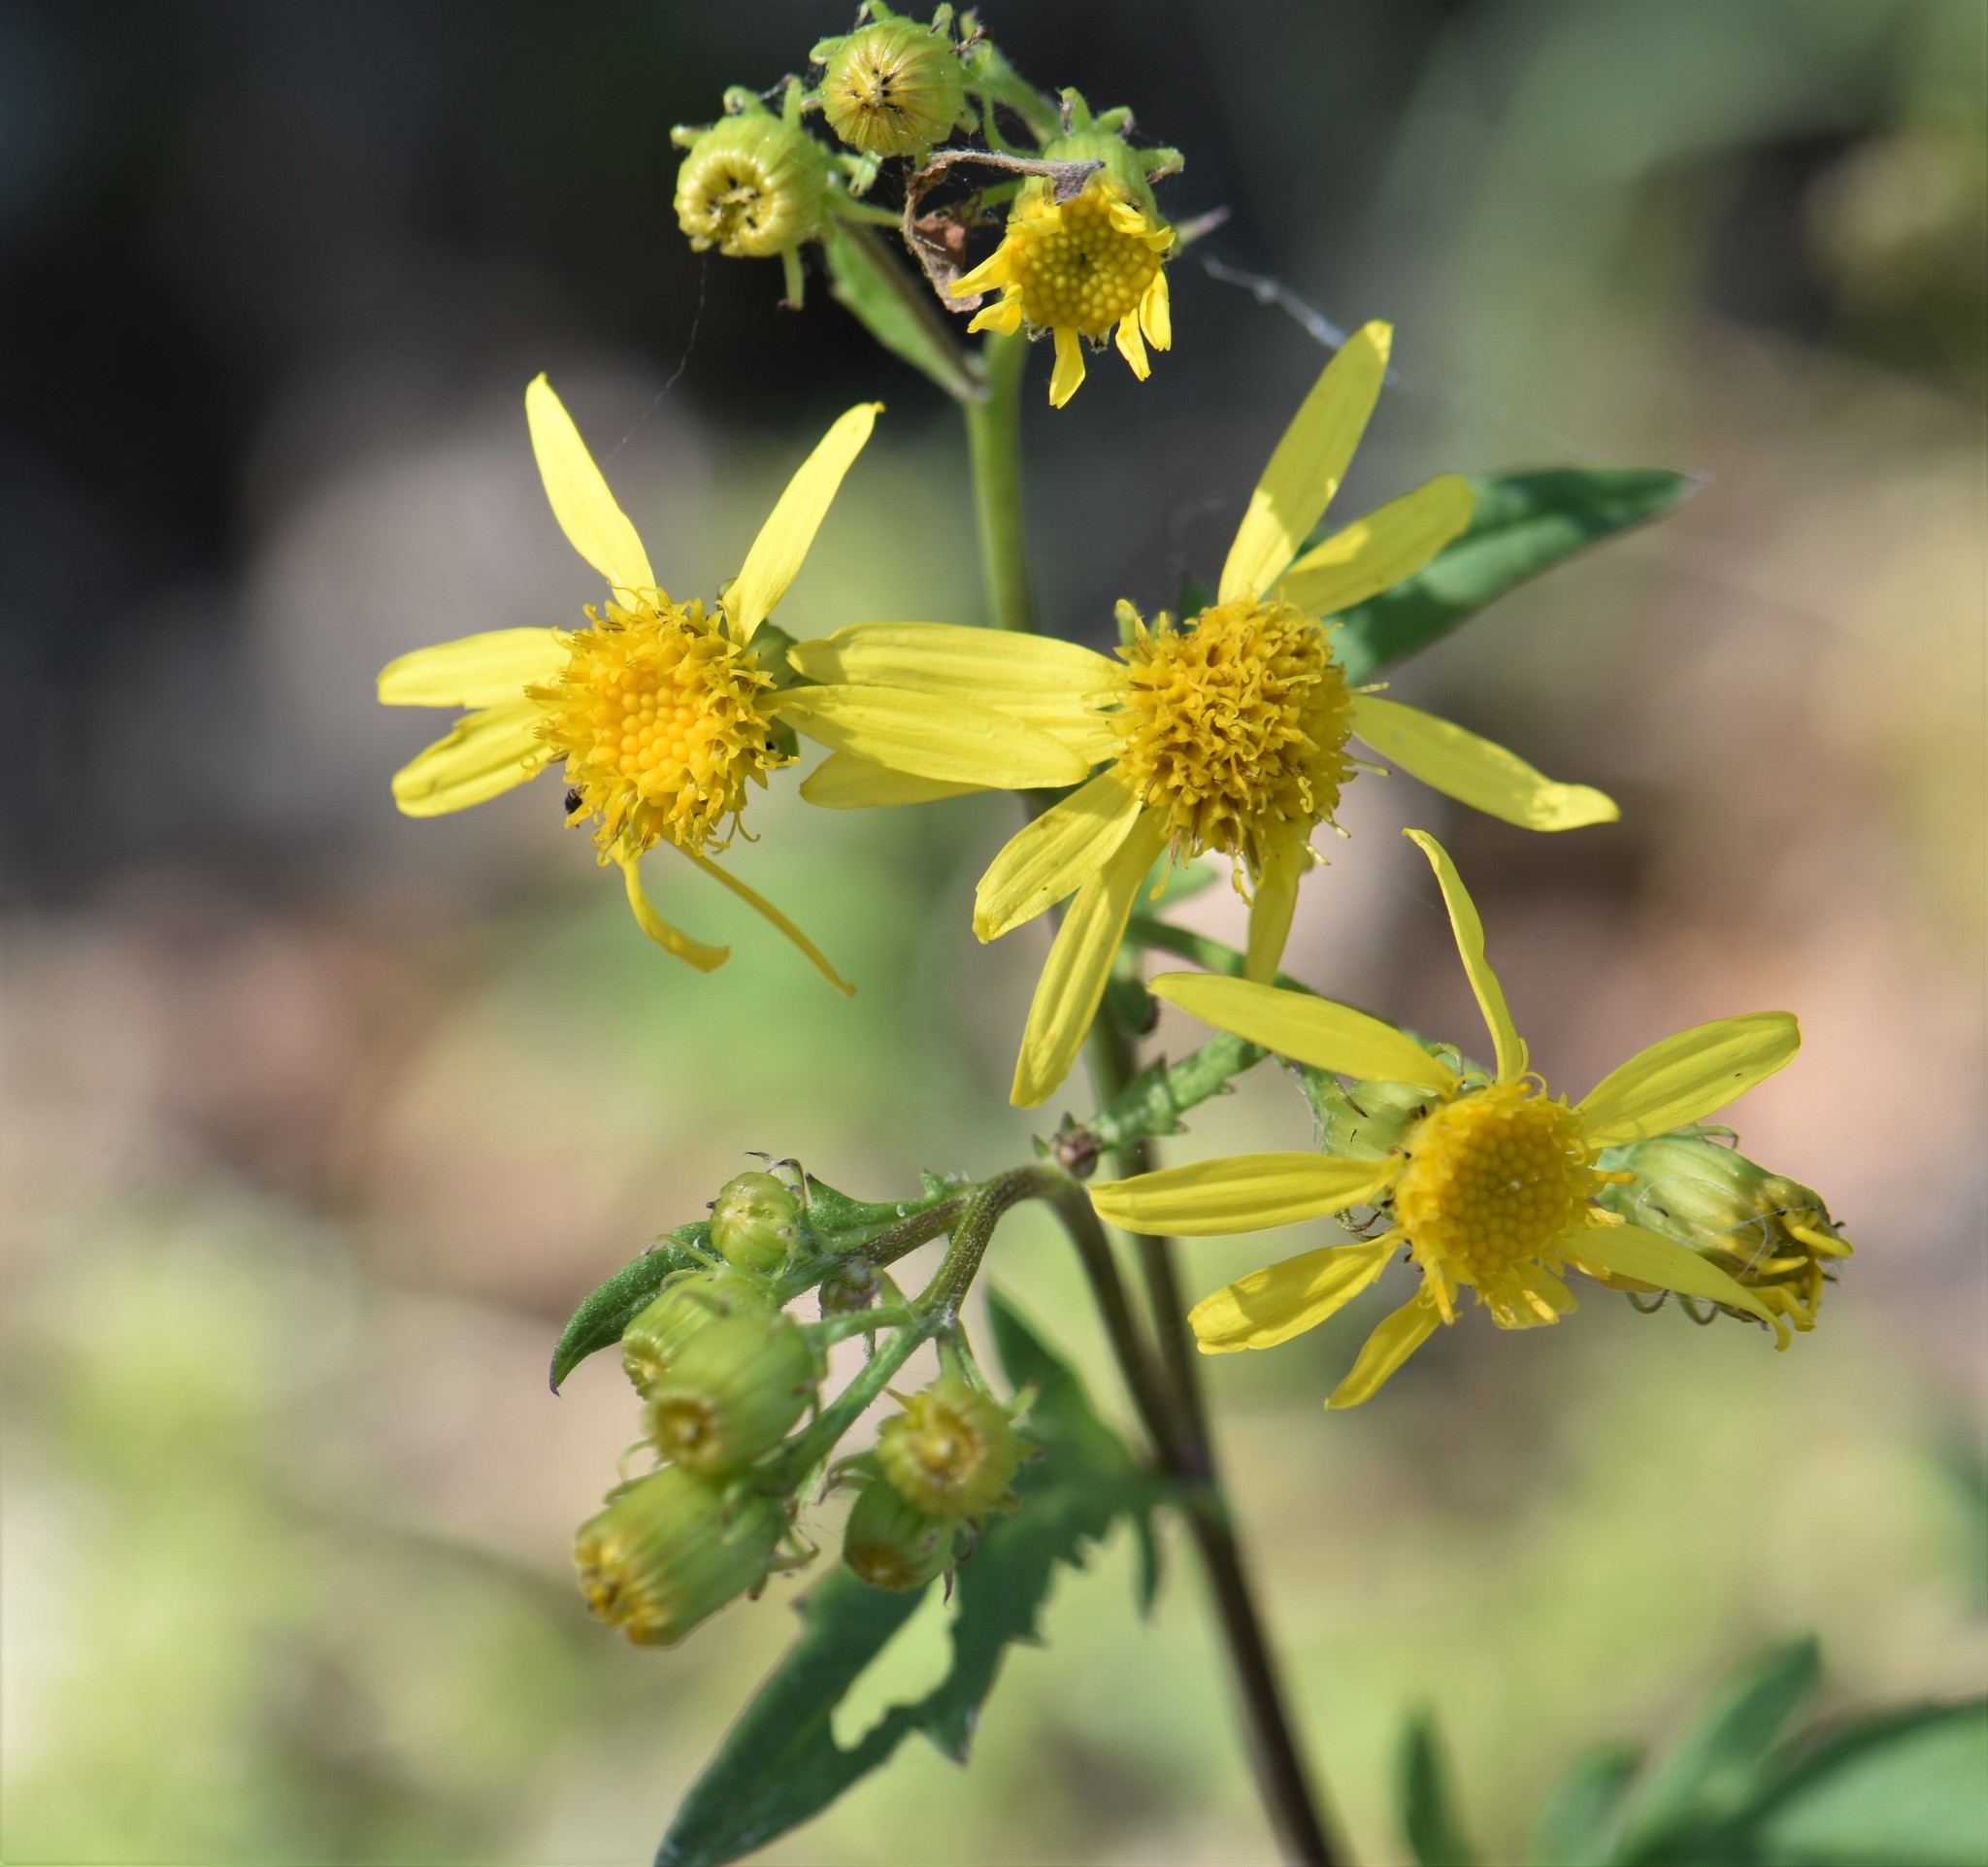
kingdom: Plantae
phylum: Tracheophyta
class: Magnoliopsida
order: Asterales
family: Asteraceae
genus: Senecio
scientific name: Senecio eremophilus
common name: Desert ragwort
